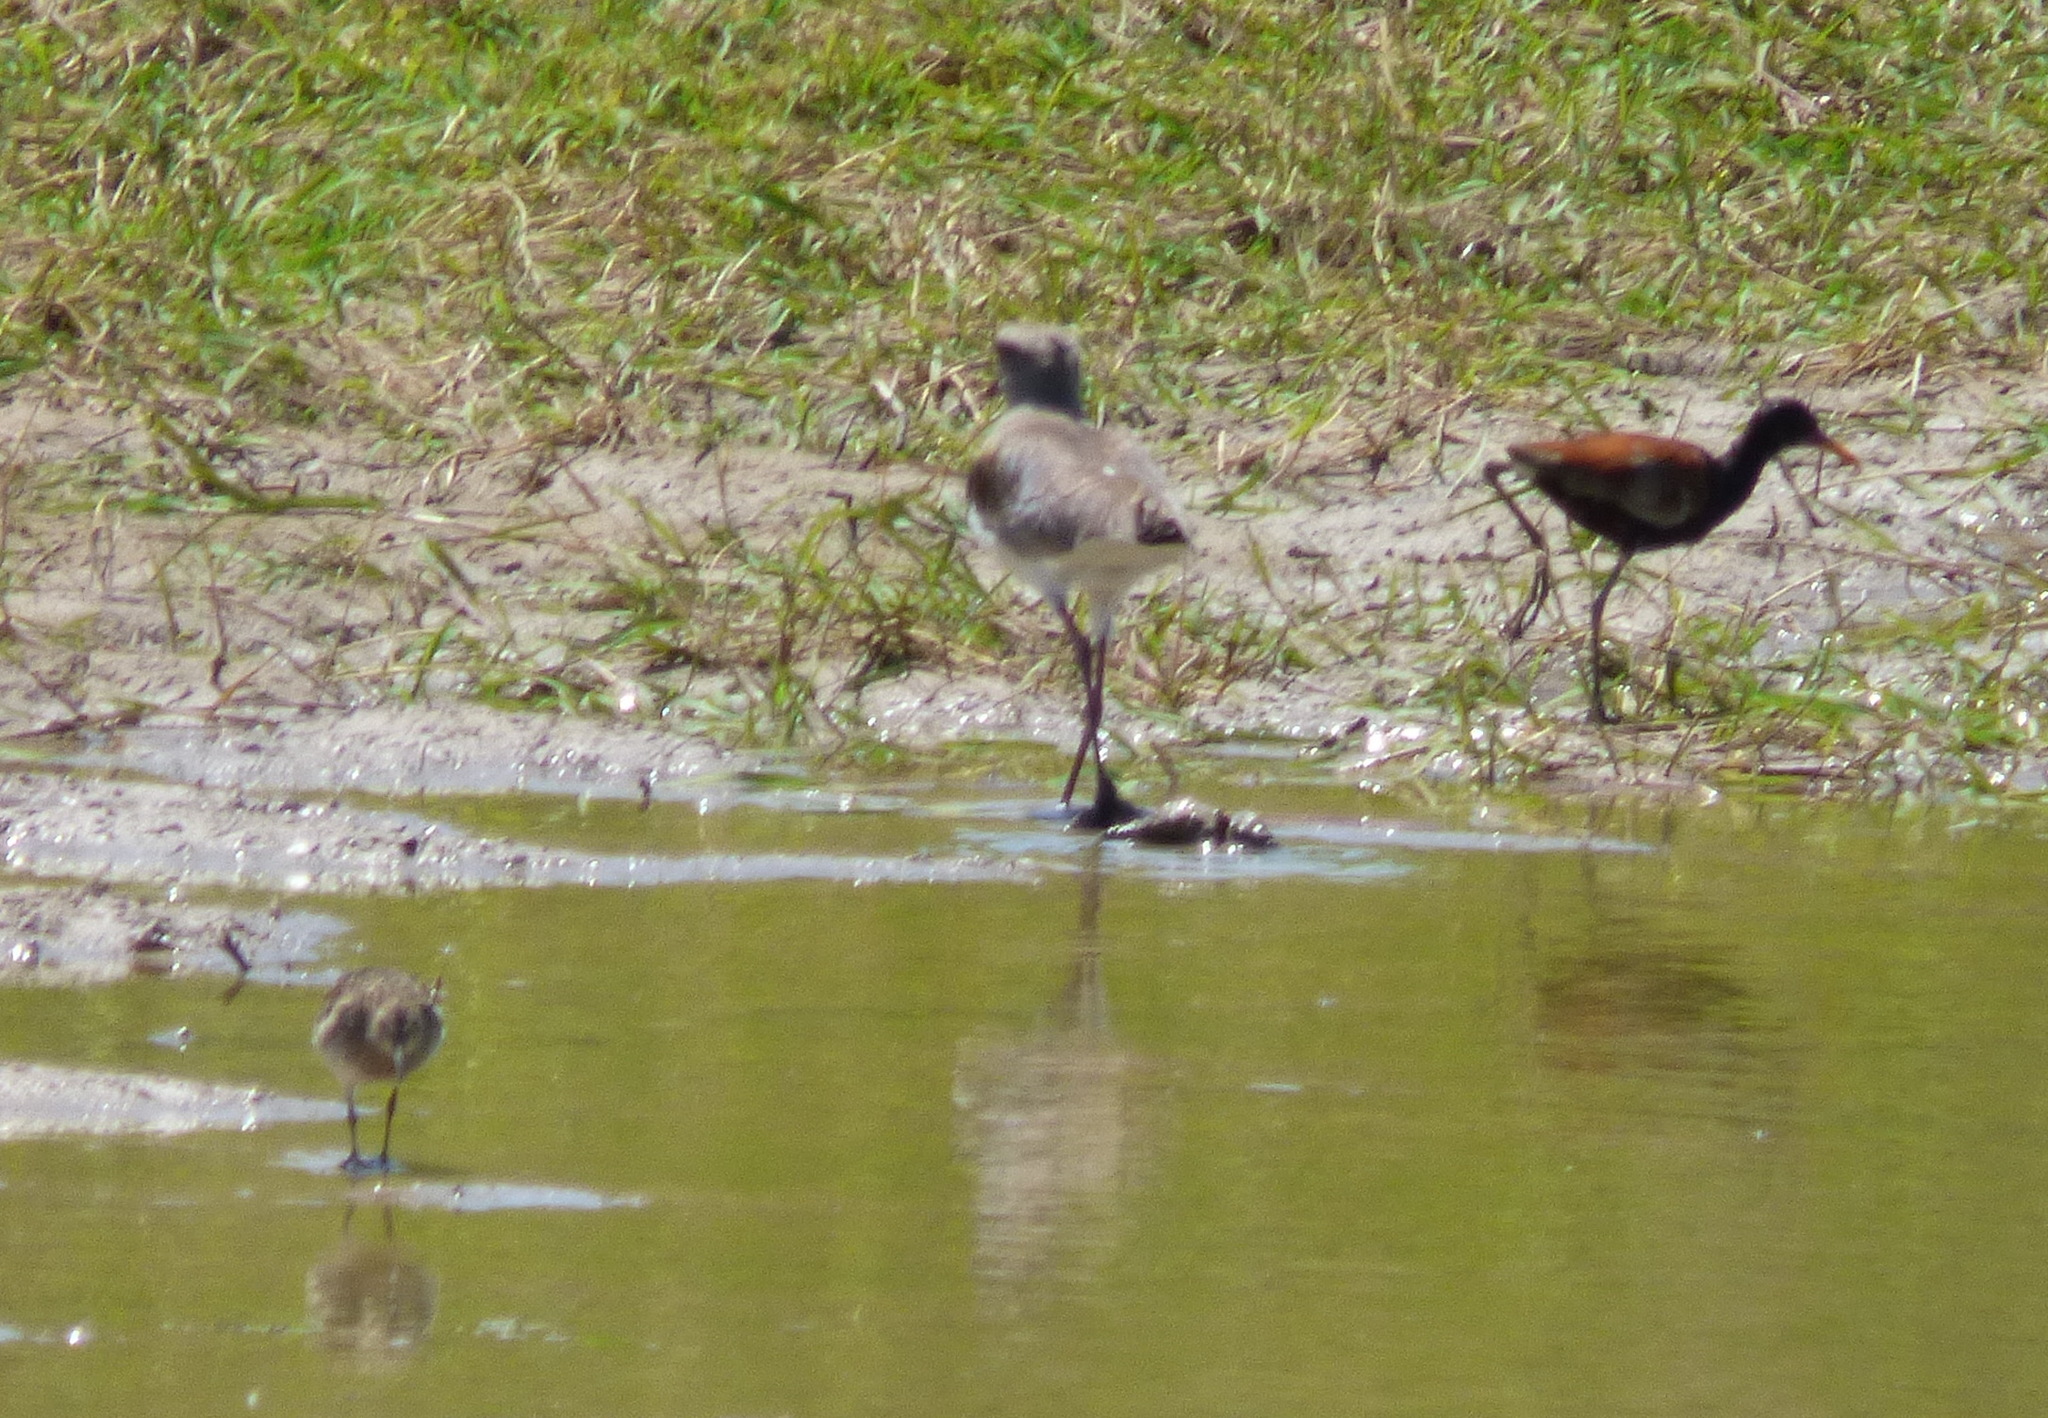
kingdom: Animalia
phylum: Chordata
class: Aves
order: Charadriiformes
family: Jacanidae
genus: Jacana
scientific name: Jacana jacana
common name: Wattled jacana
